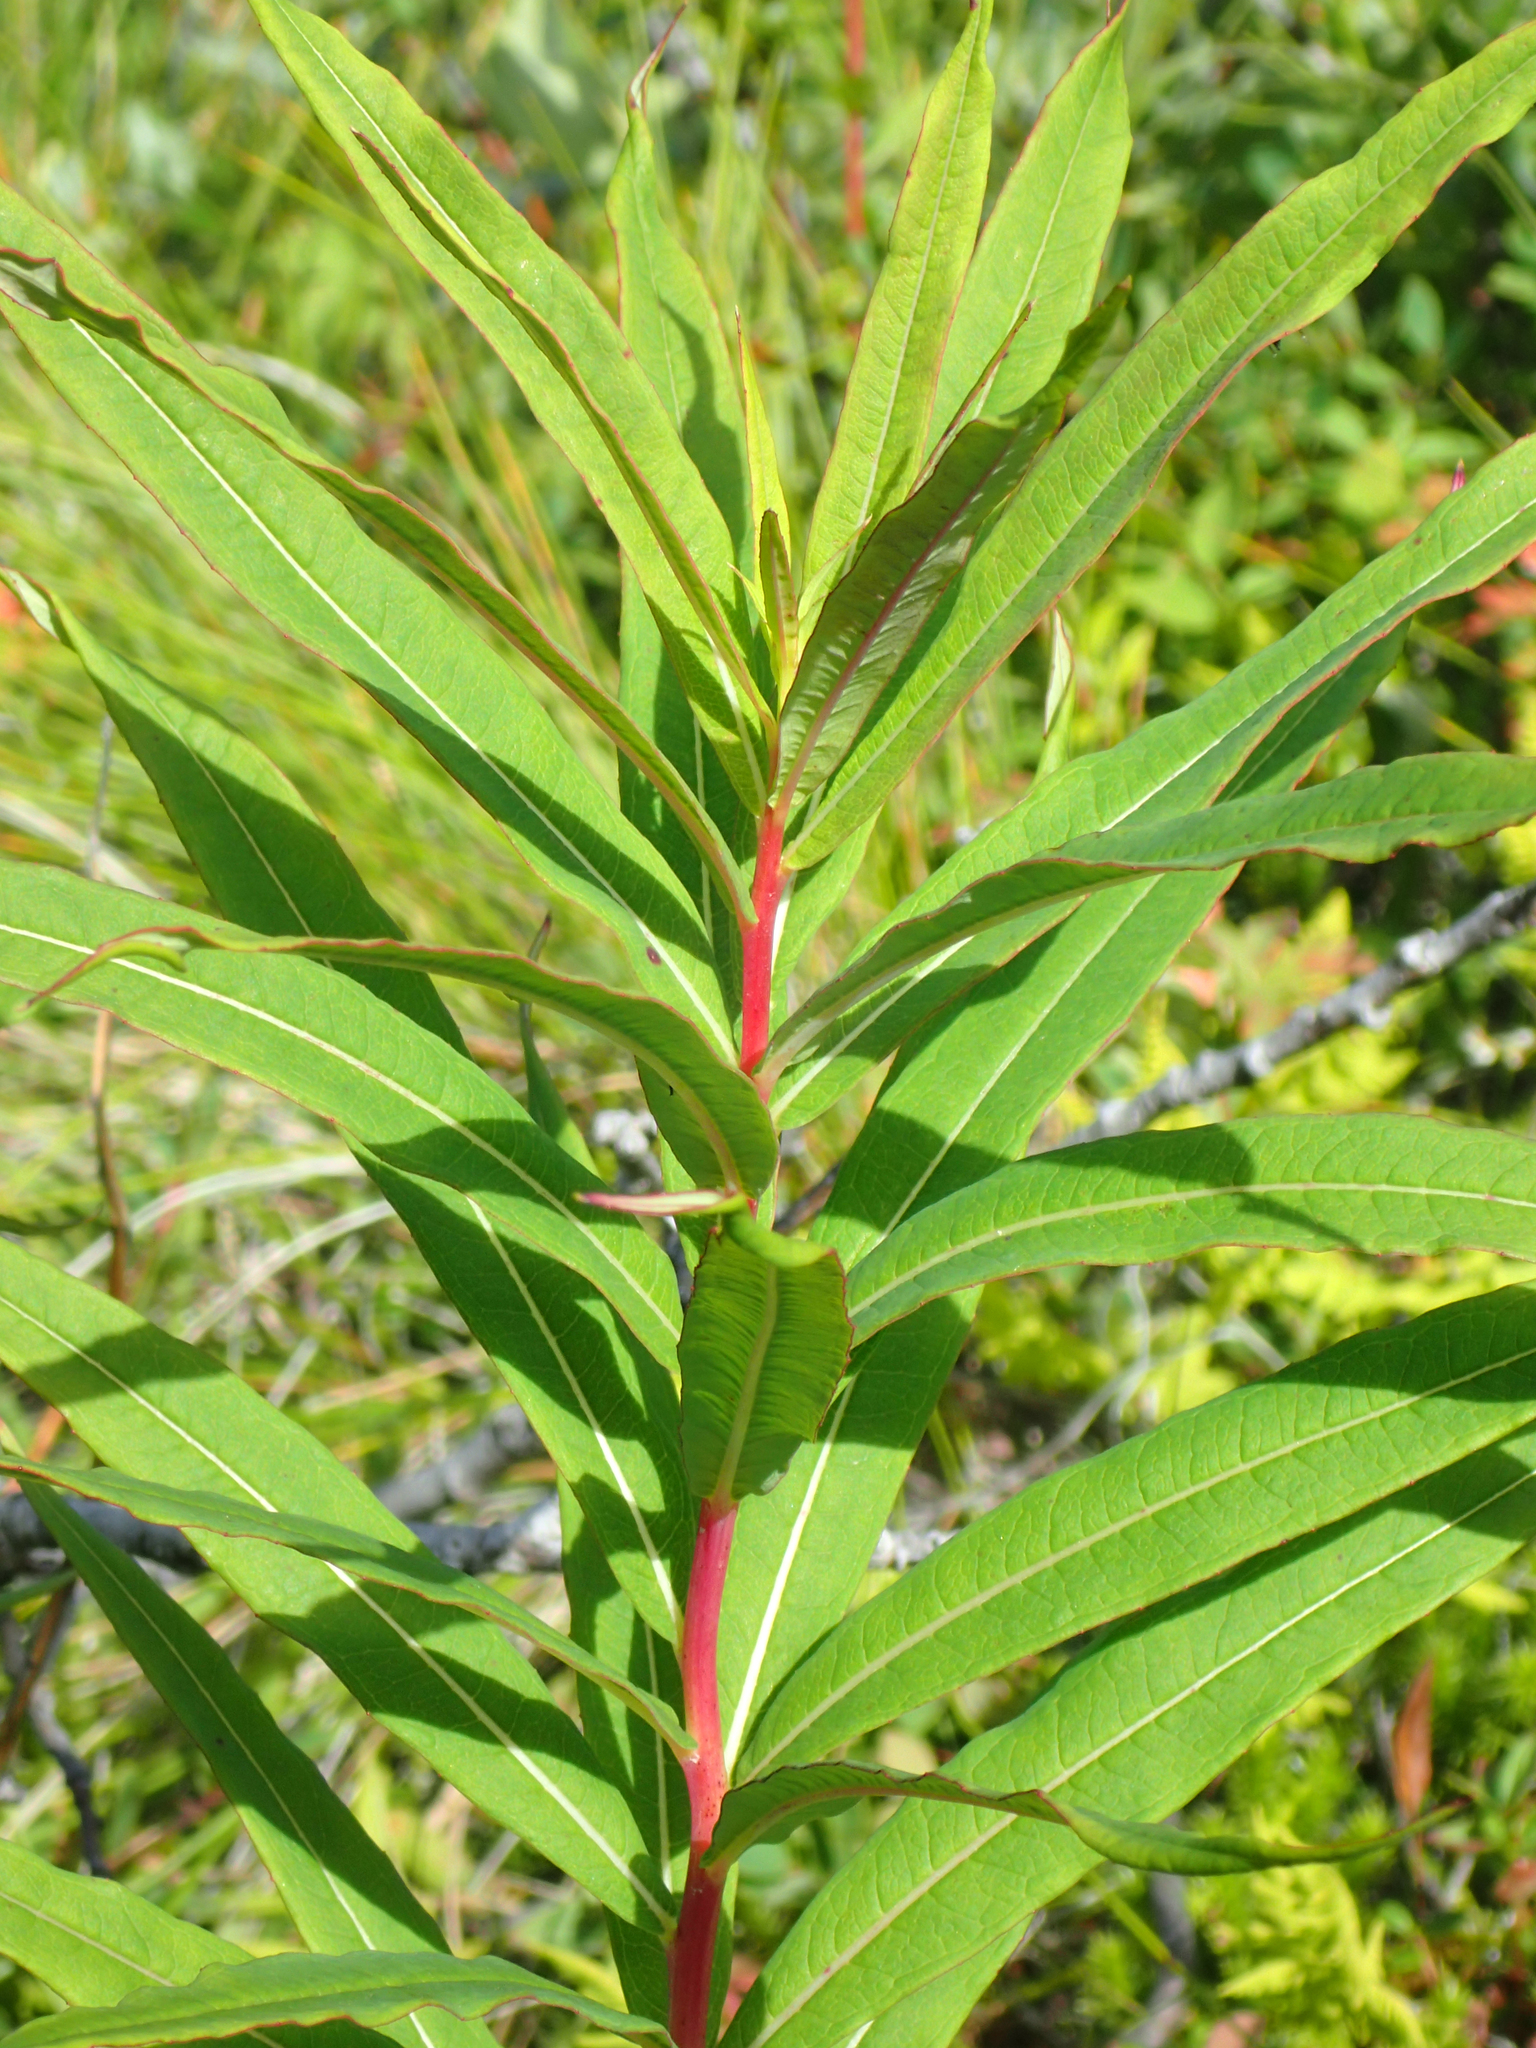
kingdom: Plantae
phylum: Tracheophyta
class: Magnoliopsida
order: Myrtales
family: Onagraceae
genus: Chamaenerion
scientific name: Chamaenerion angustifolium
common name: Fireweed
